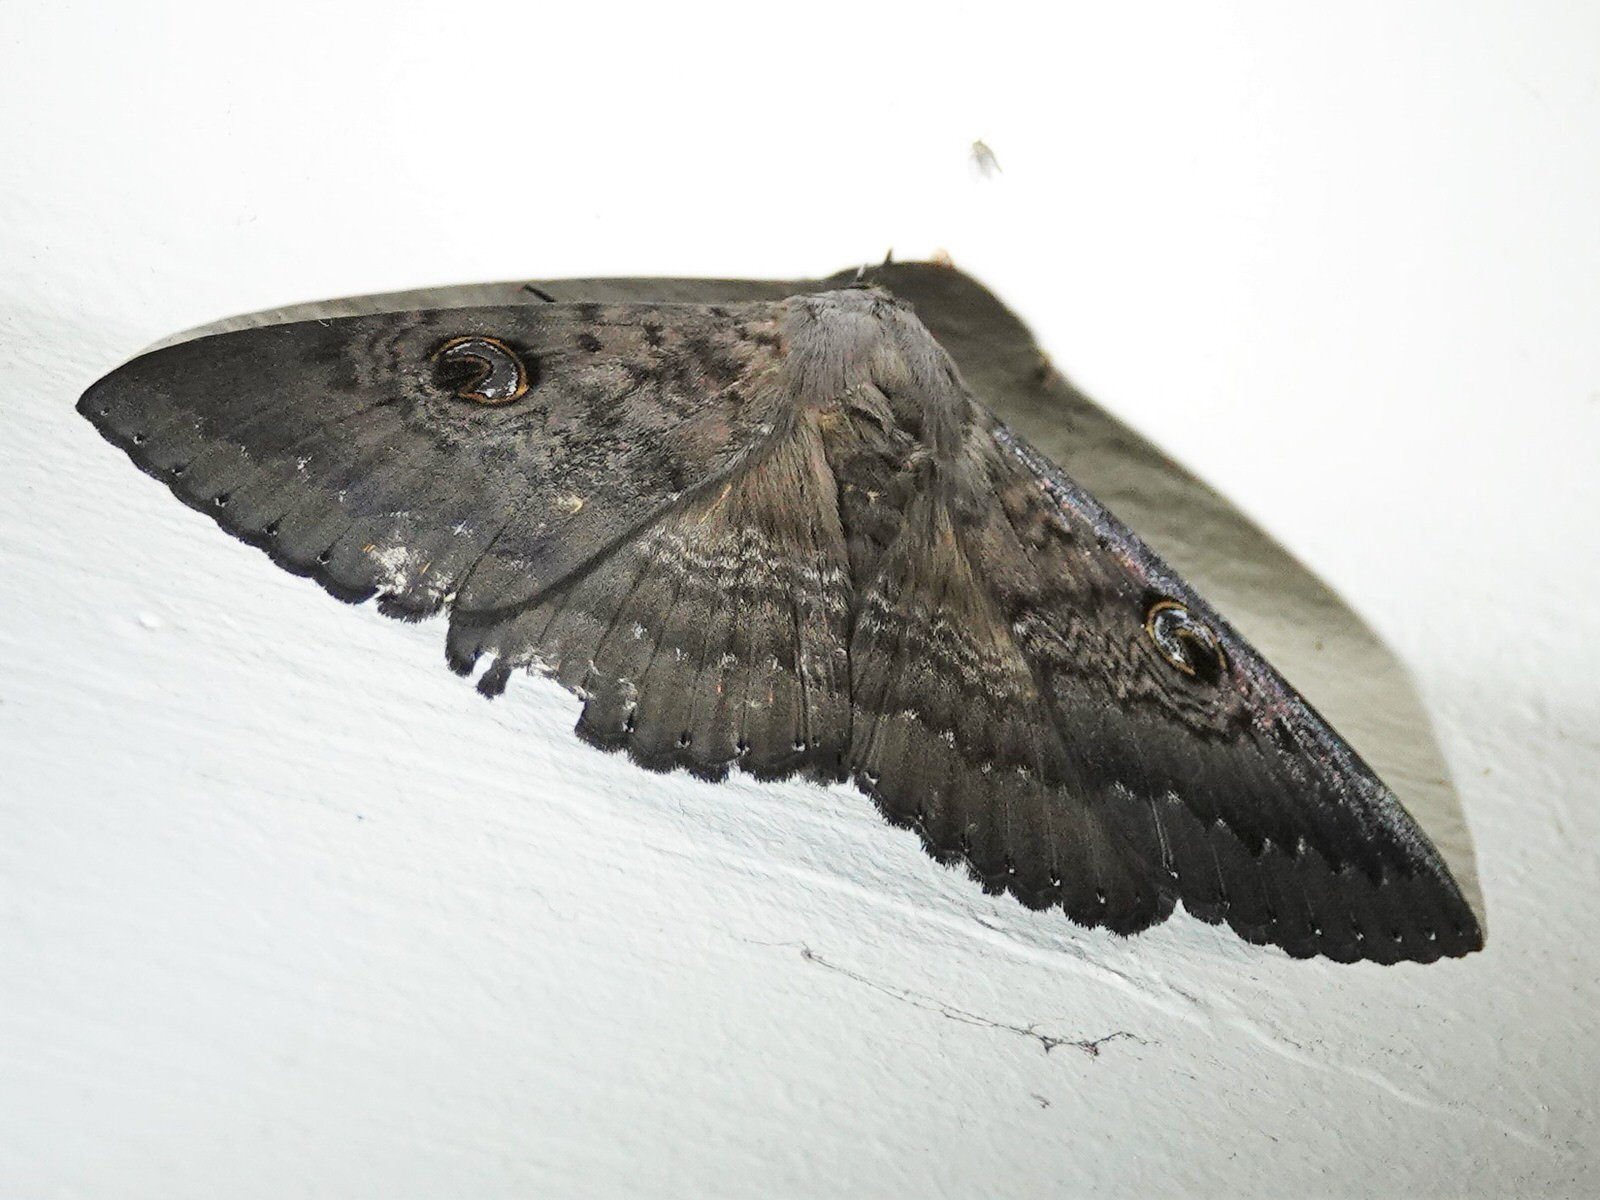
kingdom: Animalia
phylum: Arthropoda
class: Insecta
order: Lepidoptera
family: Erebidae
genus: Dasypodia
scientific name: Dasypodia cymatodes
